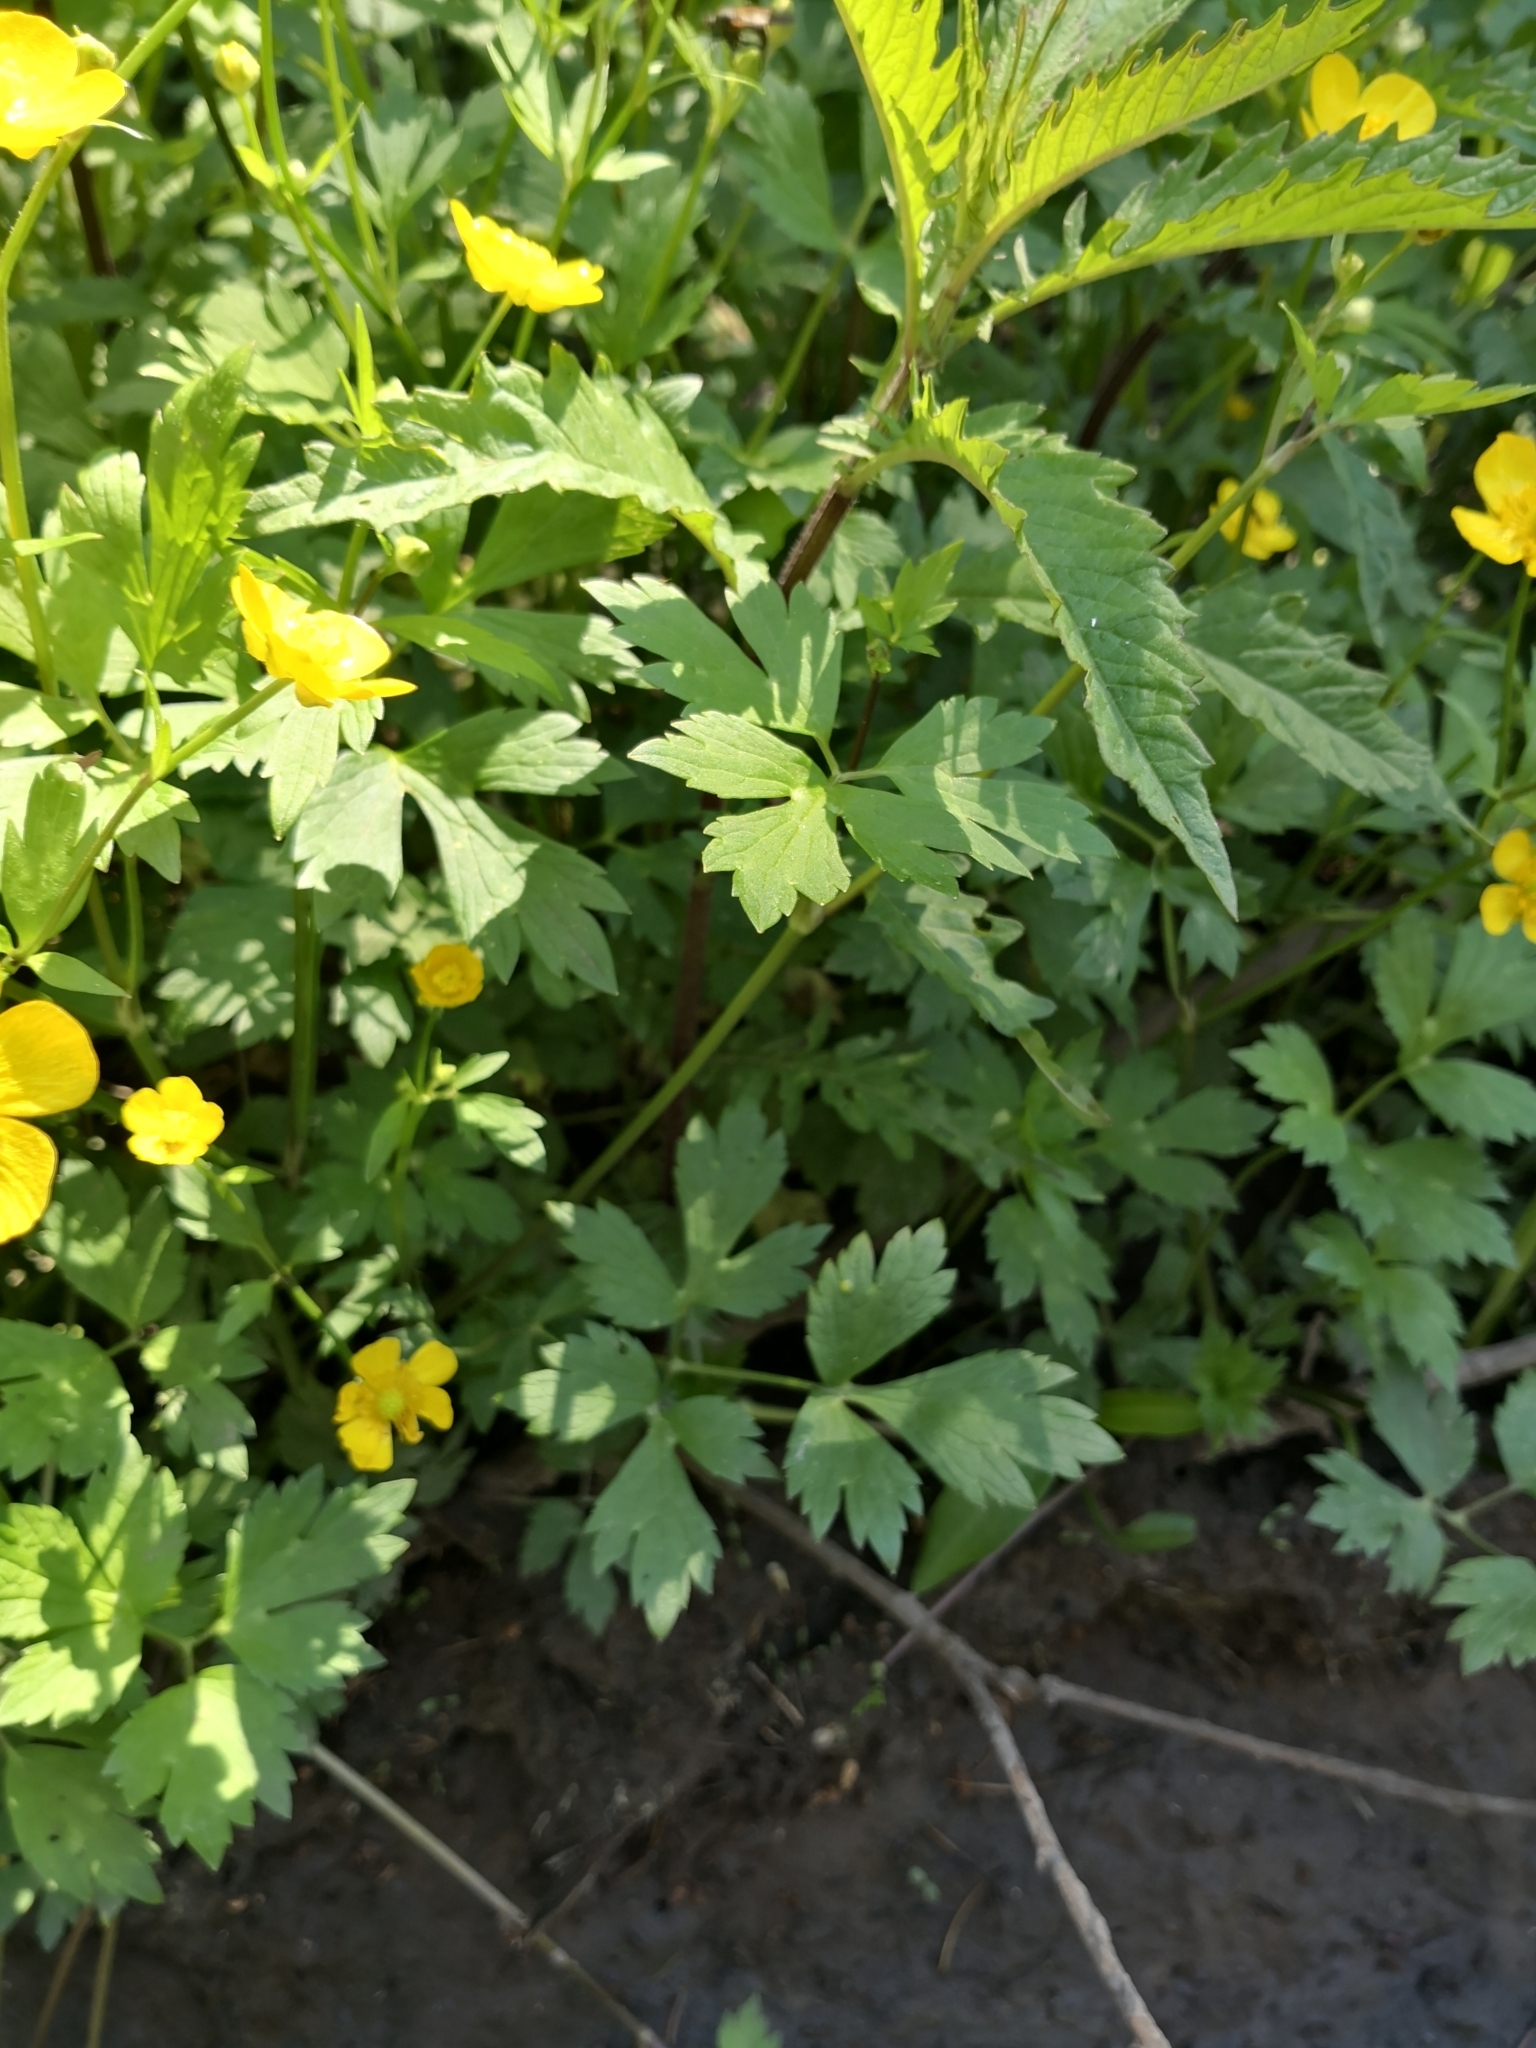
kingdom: Plantae
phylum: Tracheophyta
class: Magnoliopsida
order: Ranunculales
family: Ranunculaceae
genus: Ranunculus
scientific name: Ranunculus repens
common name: Creeping buttercup
